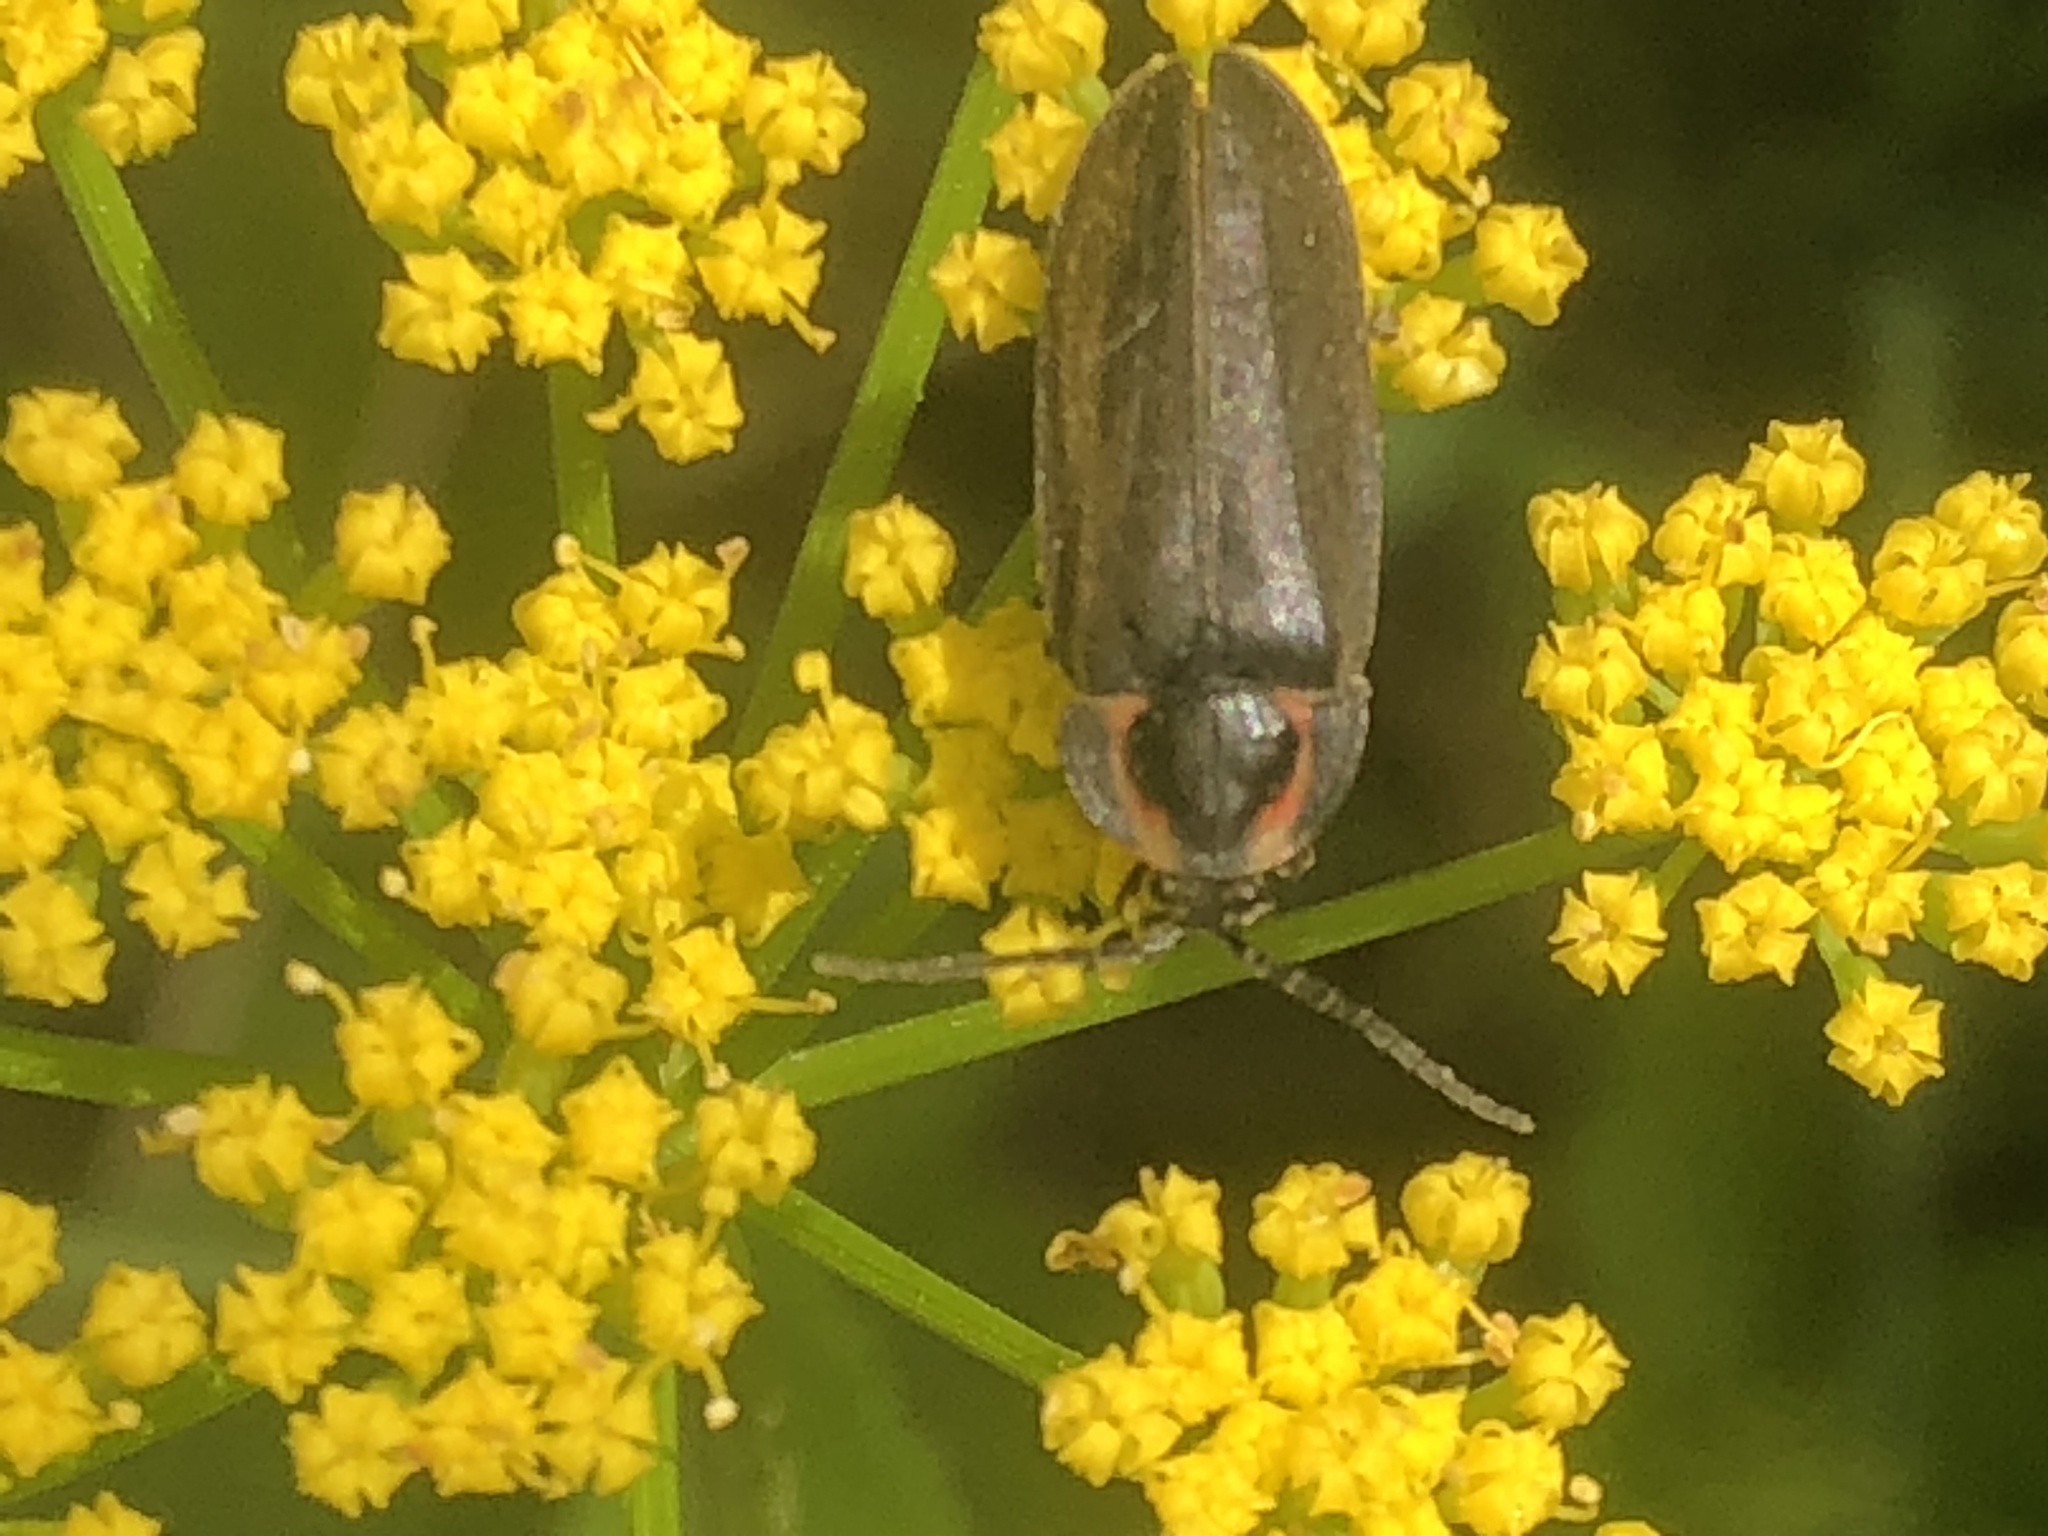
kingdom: Animalia
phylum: Arthropoda
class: Insecta
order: Coleoptera
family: Lampyridae
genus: Photinus
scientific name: Photinus corrusca
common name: Winter firefly
